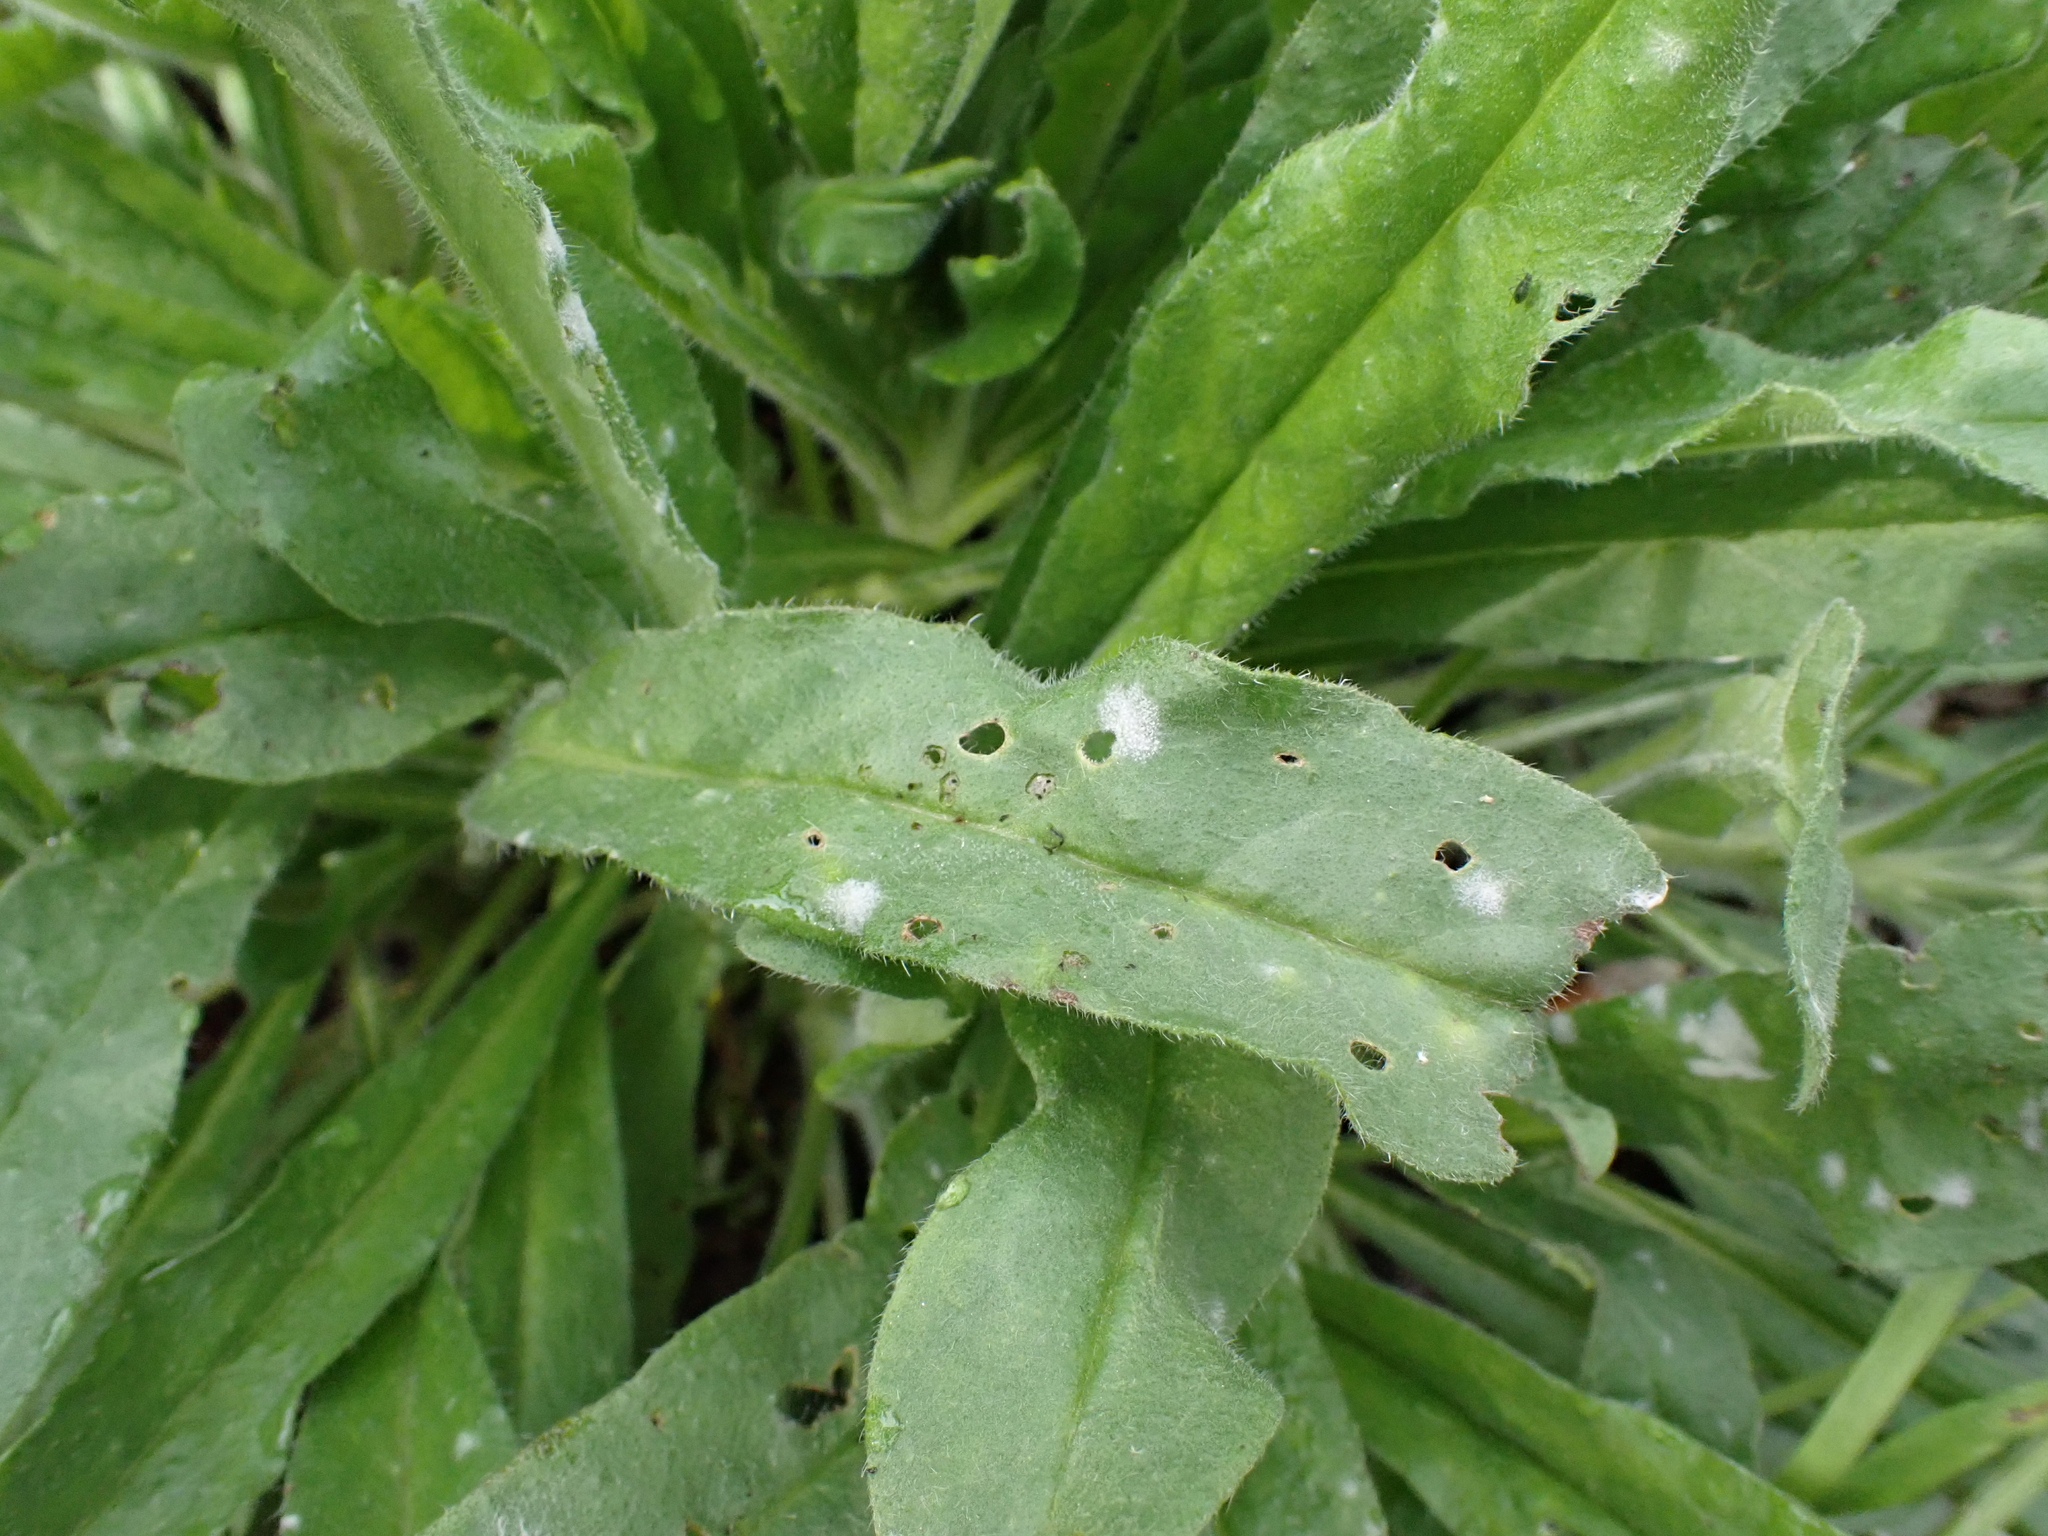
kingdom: Fungi
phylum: Ascomycota
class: Leotiomycetes
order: Helotiales
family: Erysiphaceae
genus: Golovinomyces
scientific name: Golovinomyces asperifolii
